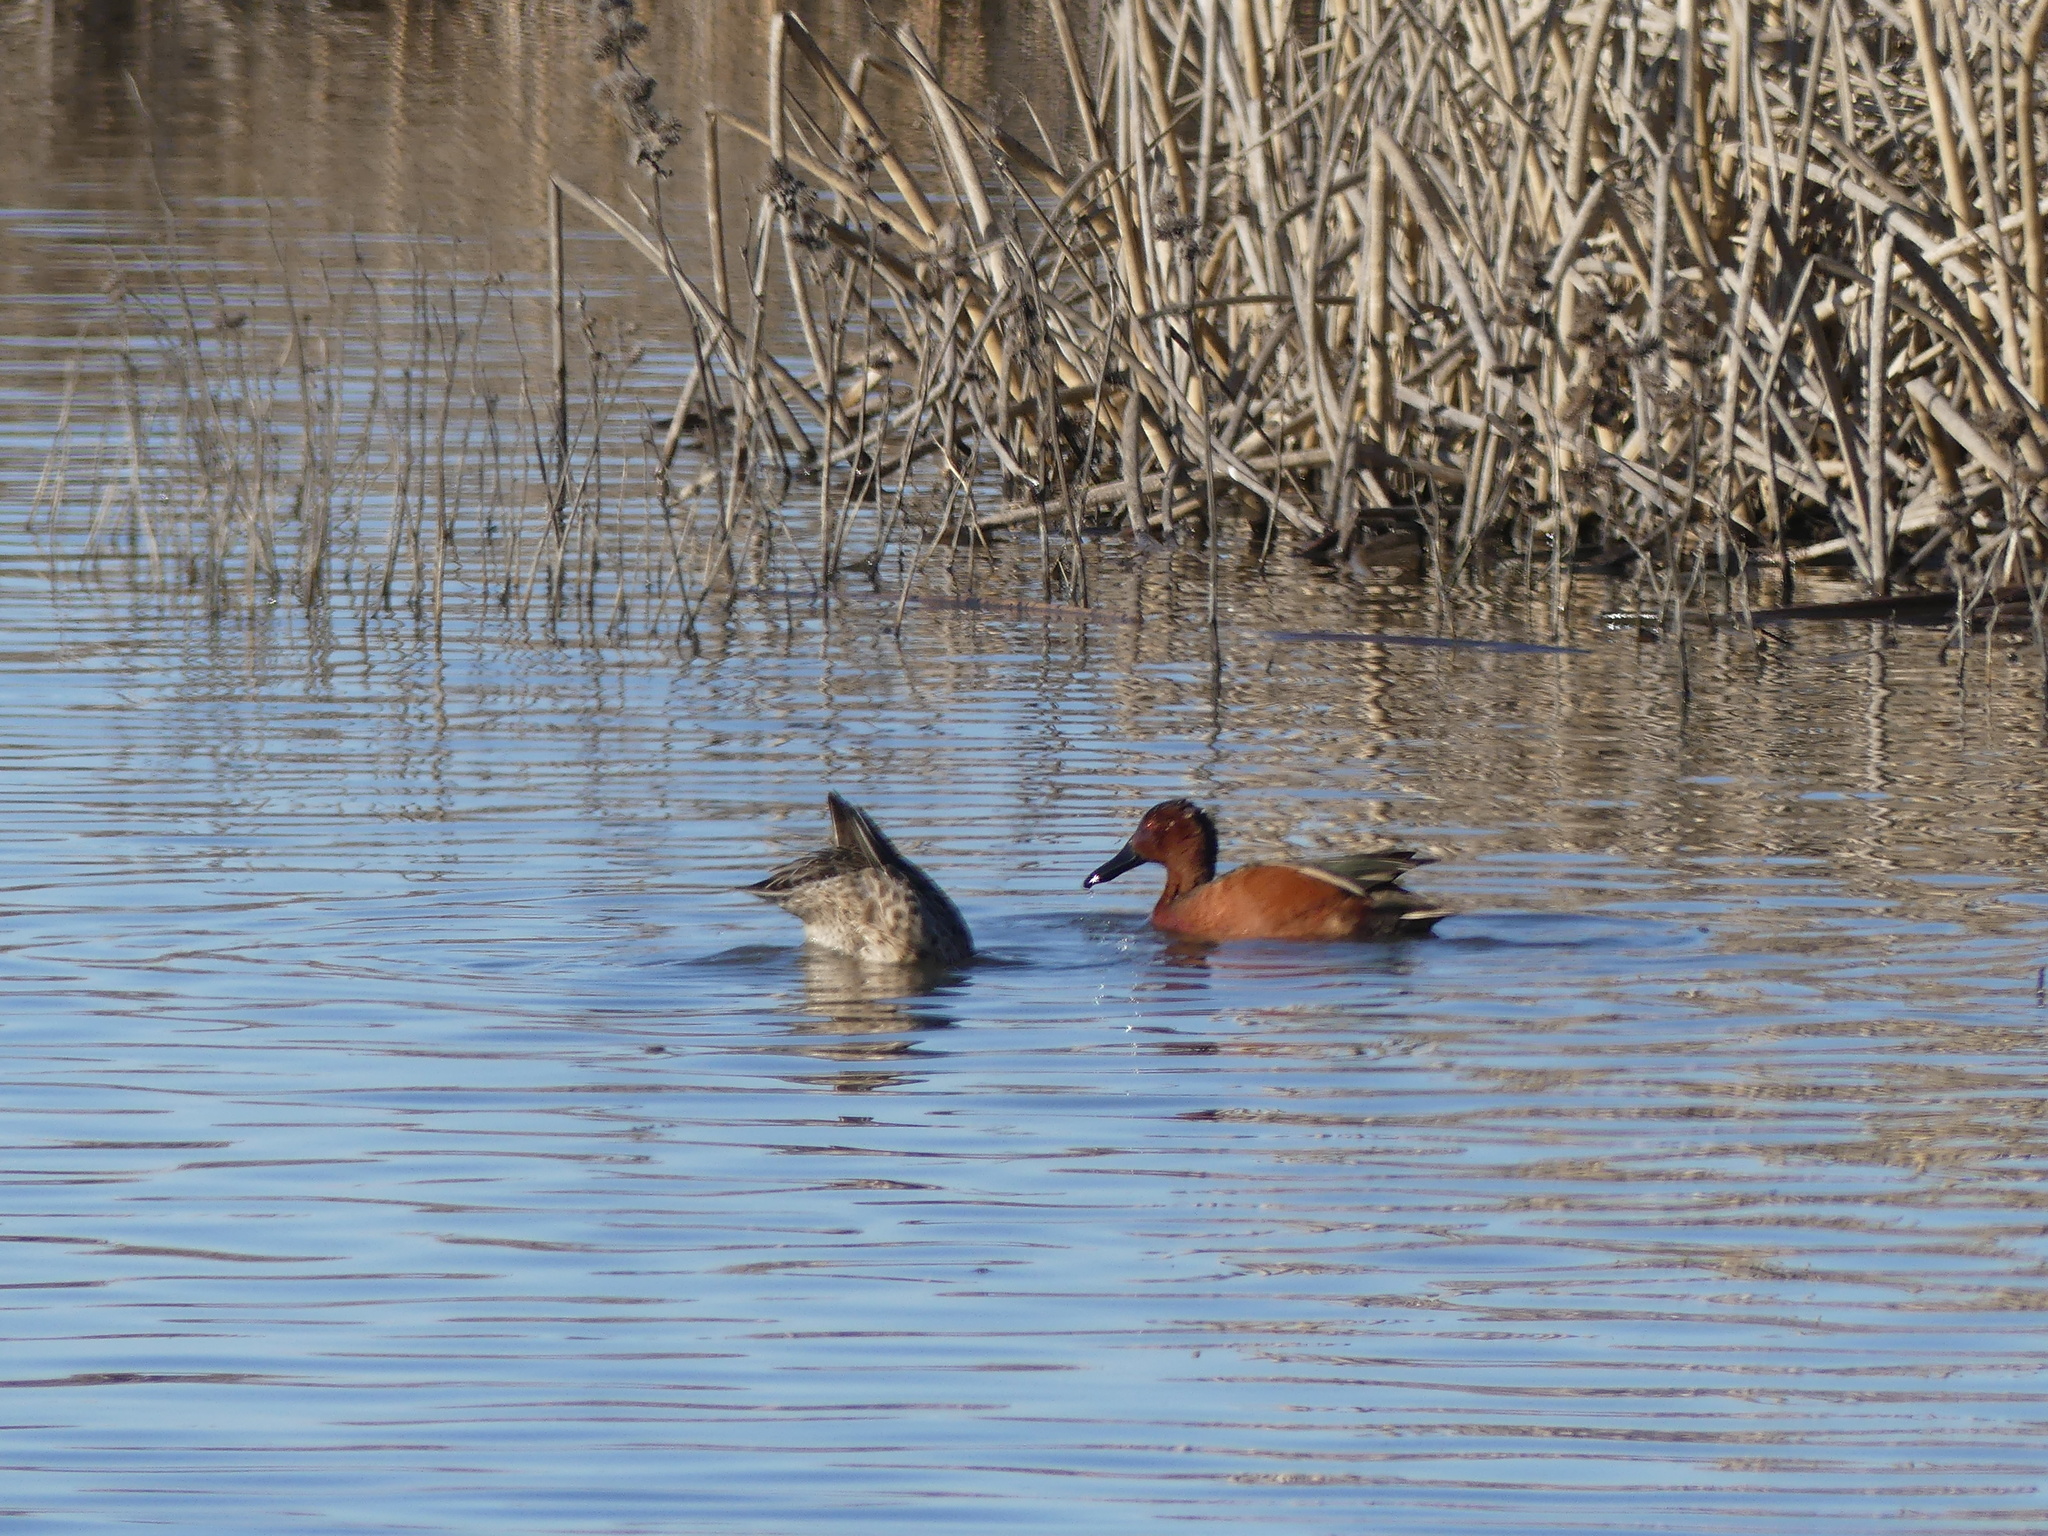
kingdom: Animalia
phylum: Chordata
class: Aves
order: Anseriformes
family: Anatidae
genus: Spatula
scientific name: Spatula cyanoptera
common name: Cinnamon teal
